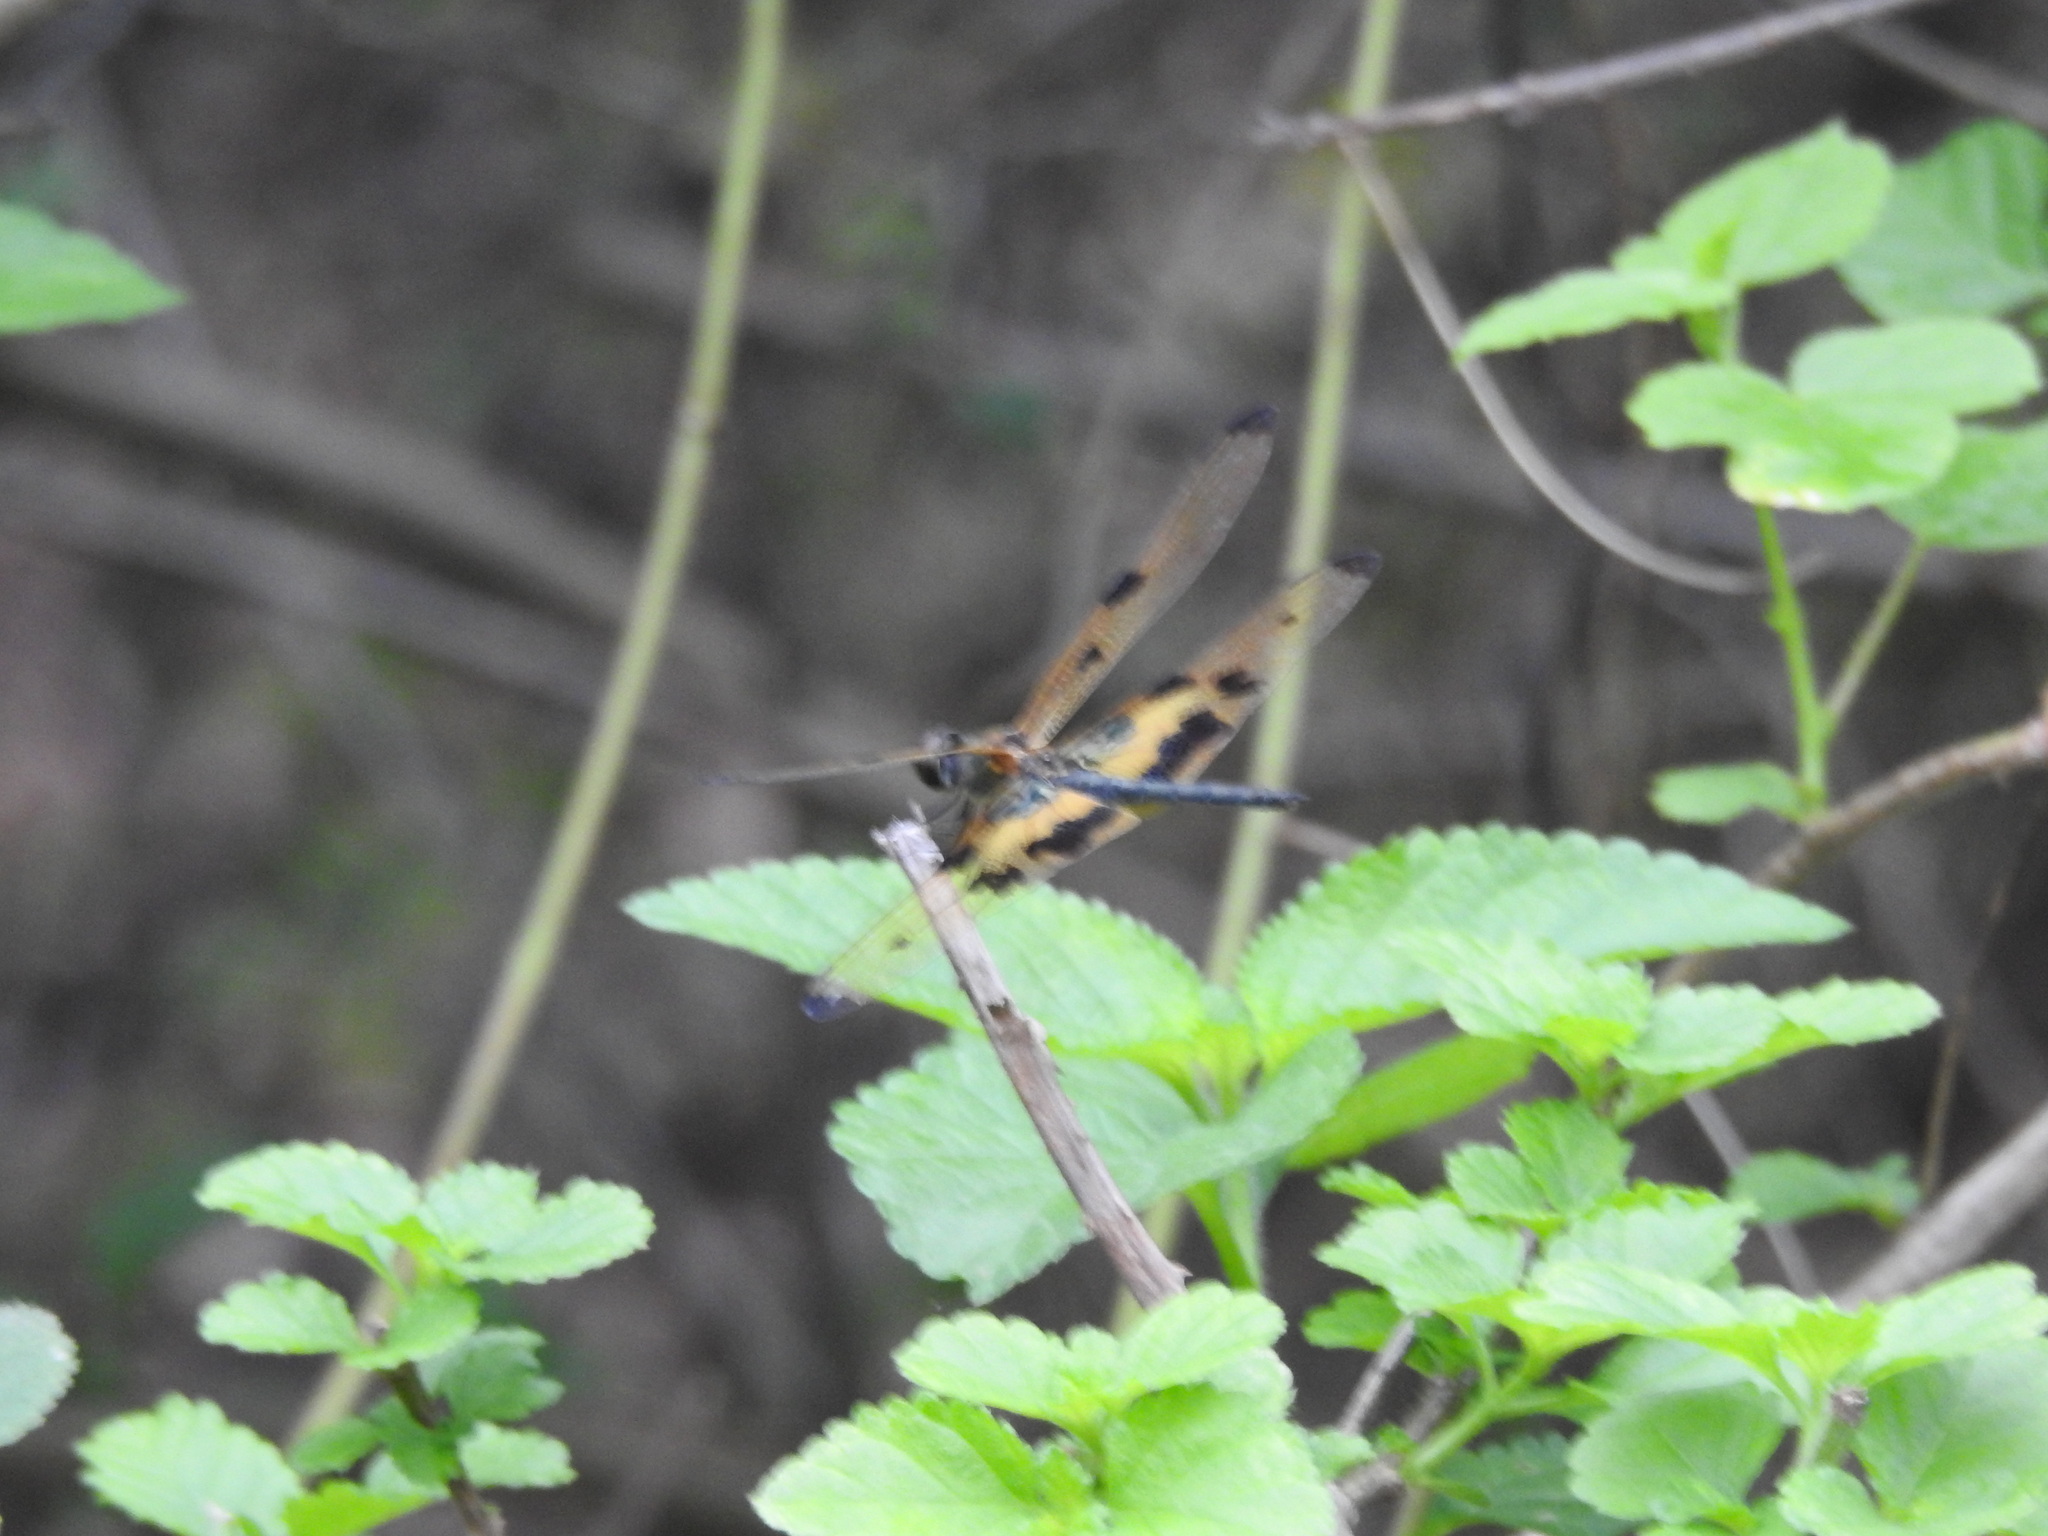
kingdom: Animalia
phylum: Arthropoda
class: Insecta
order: Odonata
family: Libellulidae
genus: Rhyothemis
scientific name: Rhyothemis variegata
